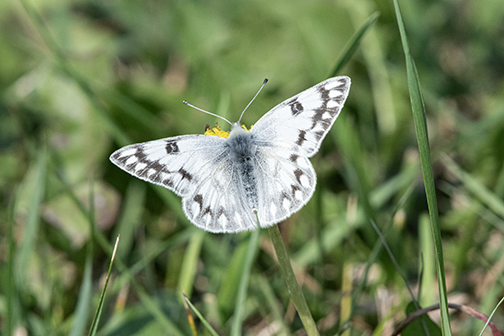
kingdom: Animalia
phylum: Arthropoda
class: Insecta
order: Lepidoptera
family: Pieridae
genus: Pontia
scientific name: Pontia protodice
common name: Checkered white
